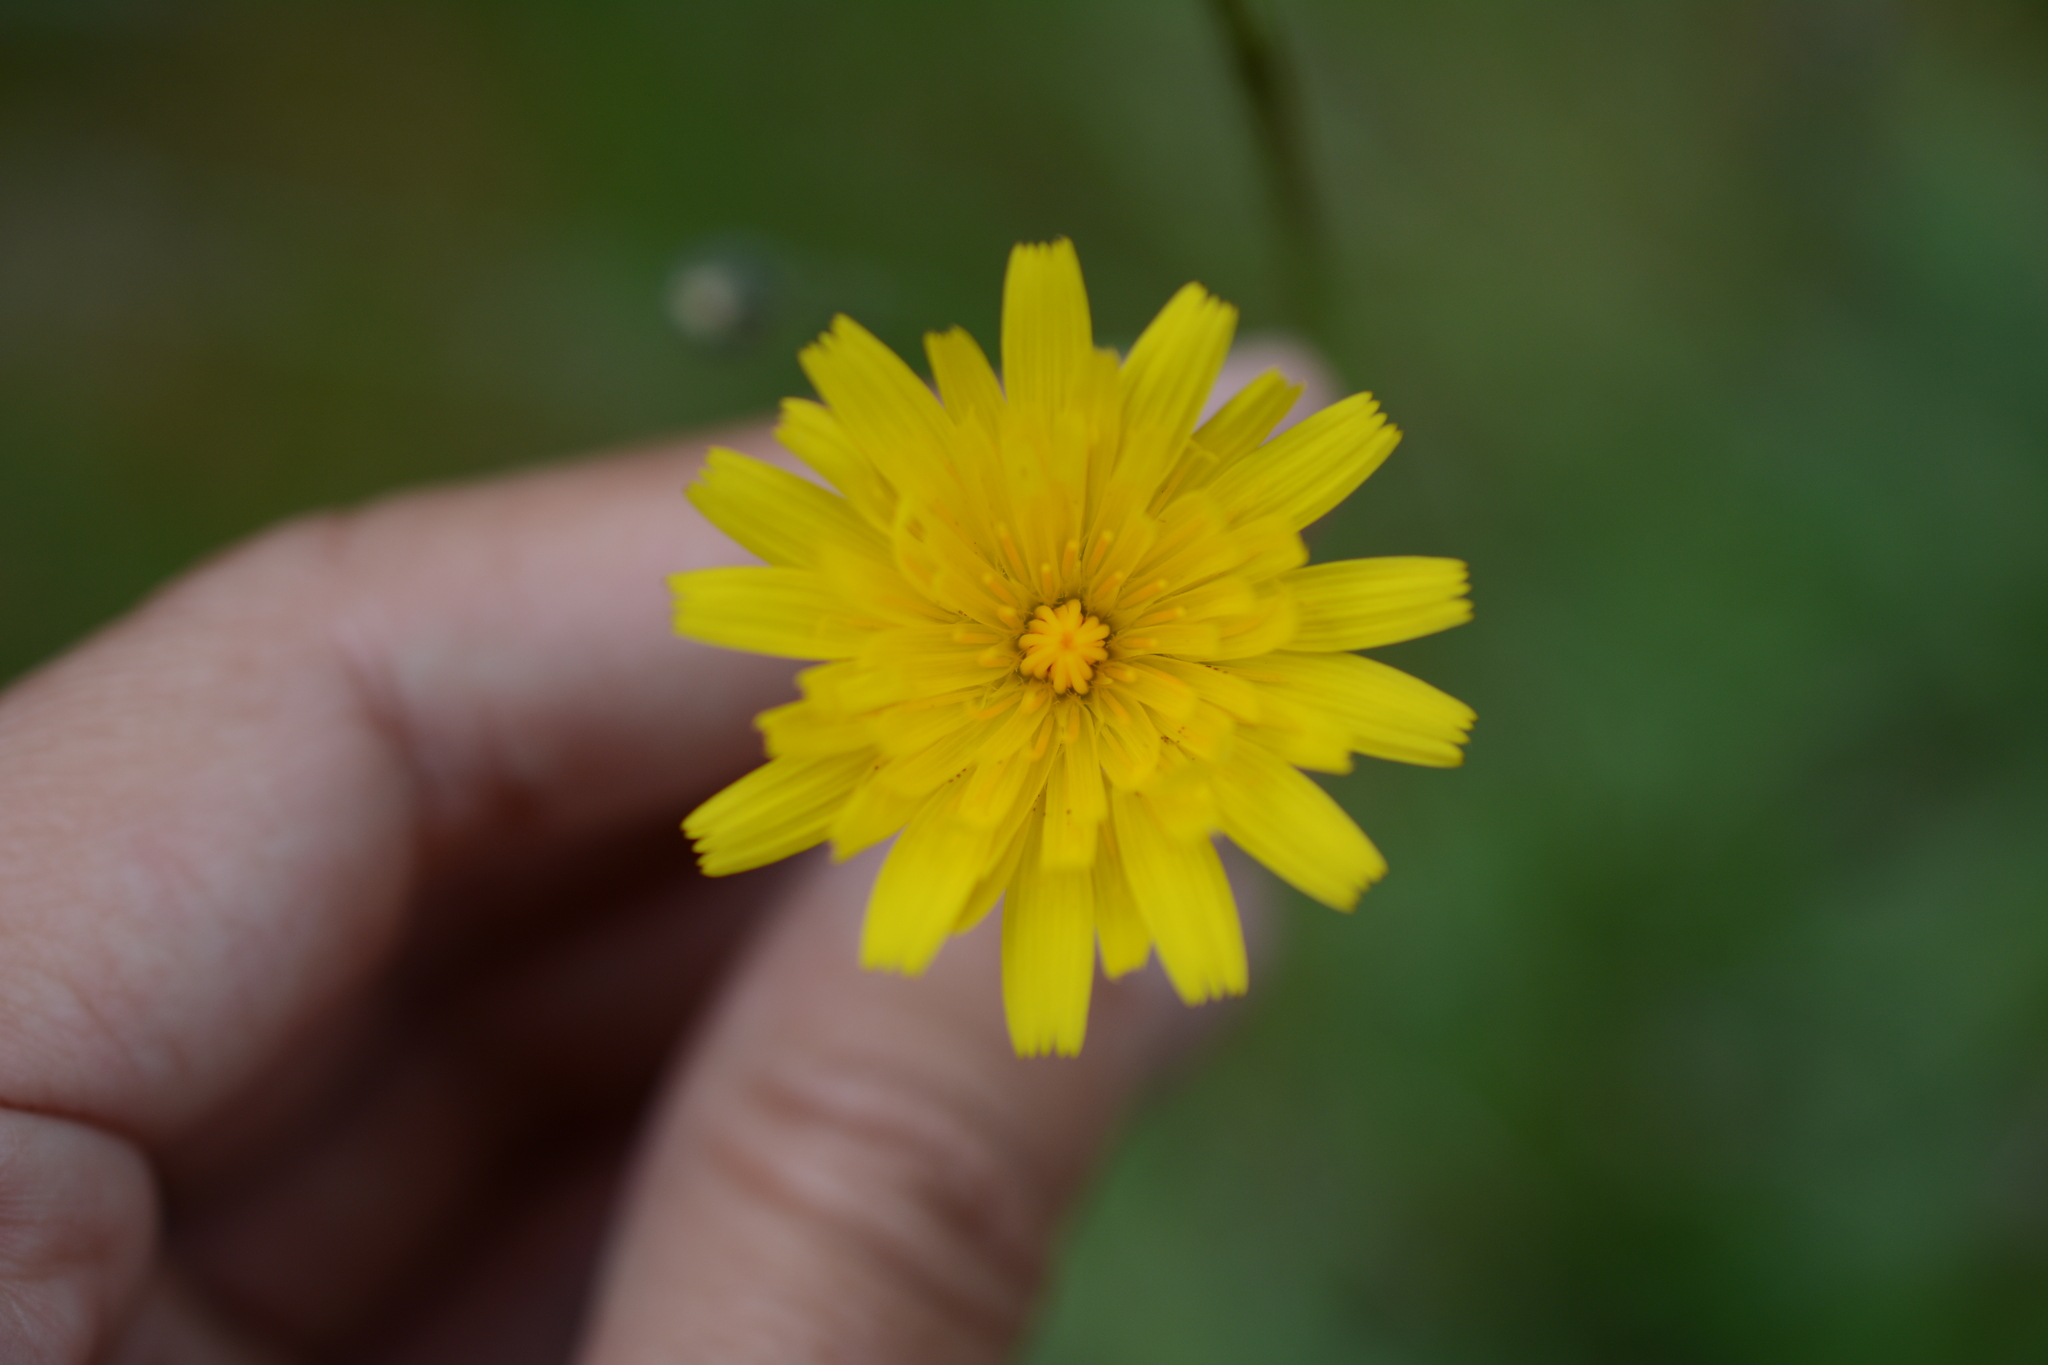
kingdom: Plantae
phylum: Tracheophyta
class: Magnoliopsida
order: Asterales
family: Asteraceae
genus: Hypochaeris
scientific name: Hypochaeris radicata
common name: Flatweed
